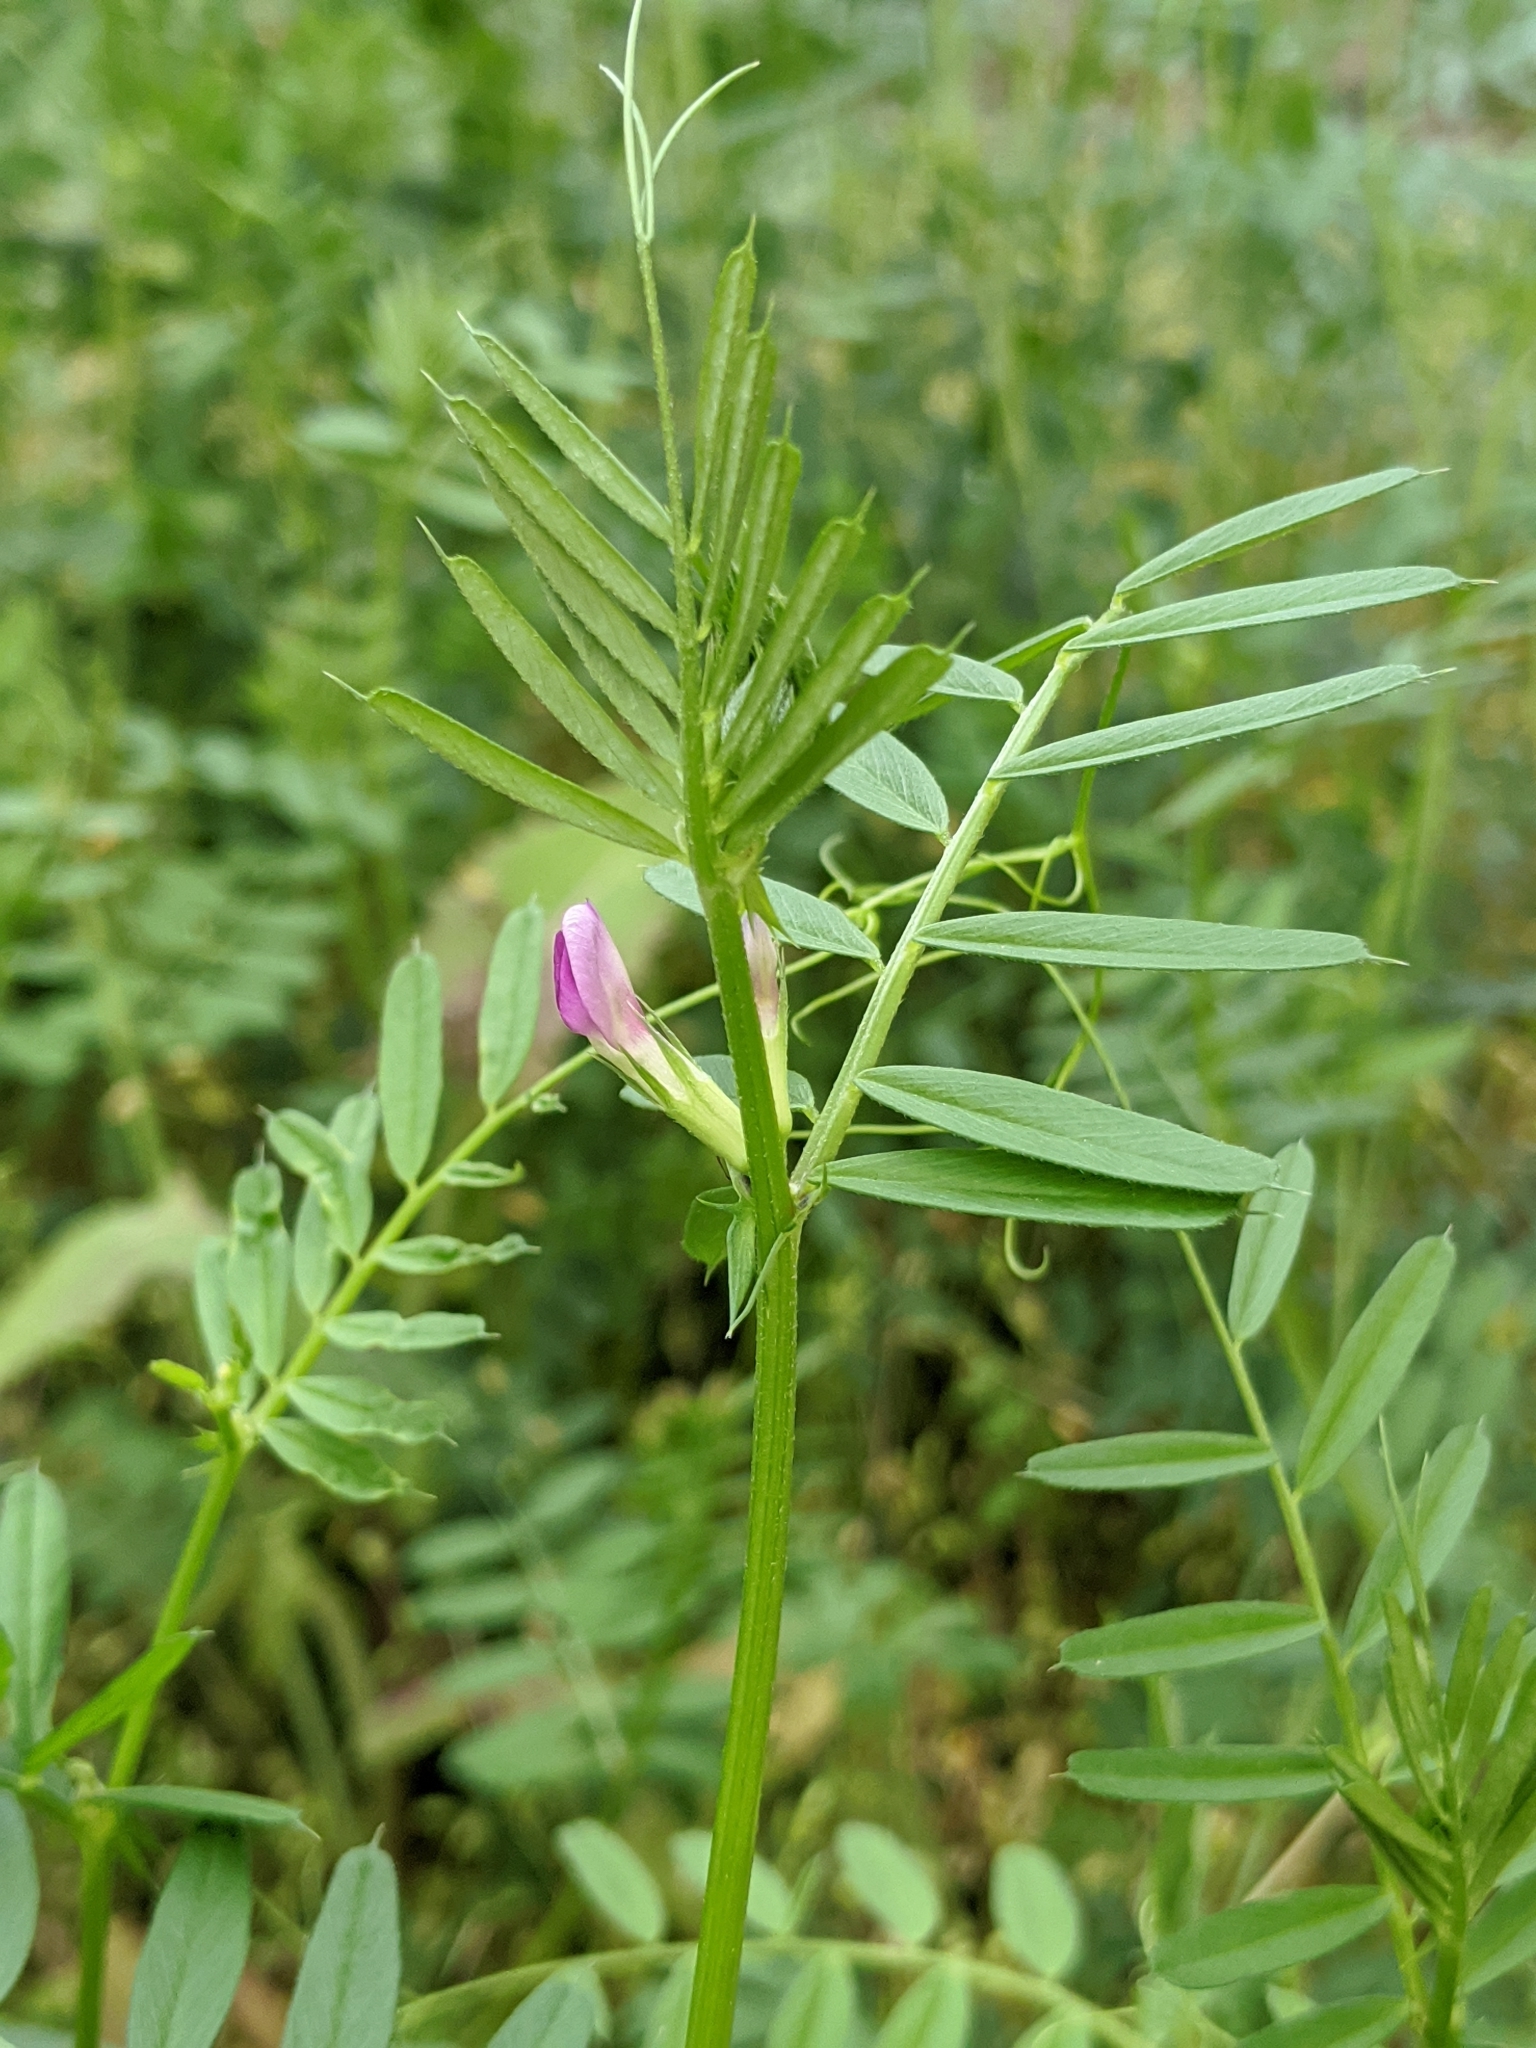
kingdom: Plantae
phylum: Tracheophyta
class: Magnoliopsida
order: Fabales
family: Fabaceae
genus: Vicia
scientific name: Vicia sativa
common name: Garden vetch
